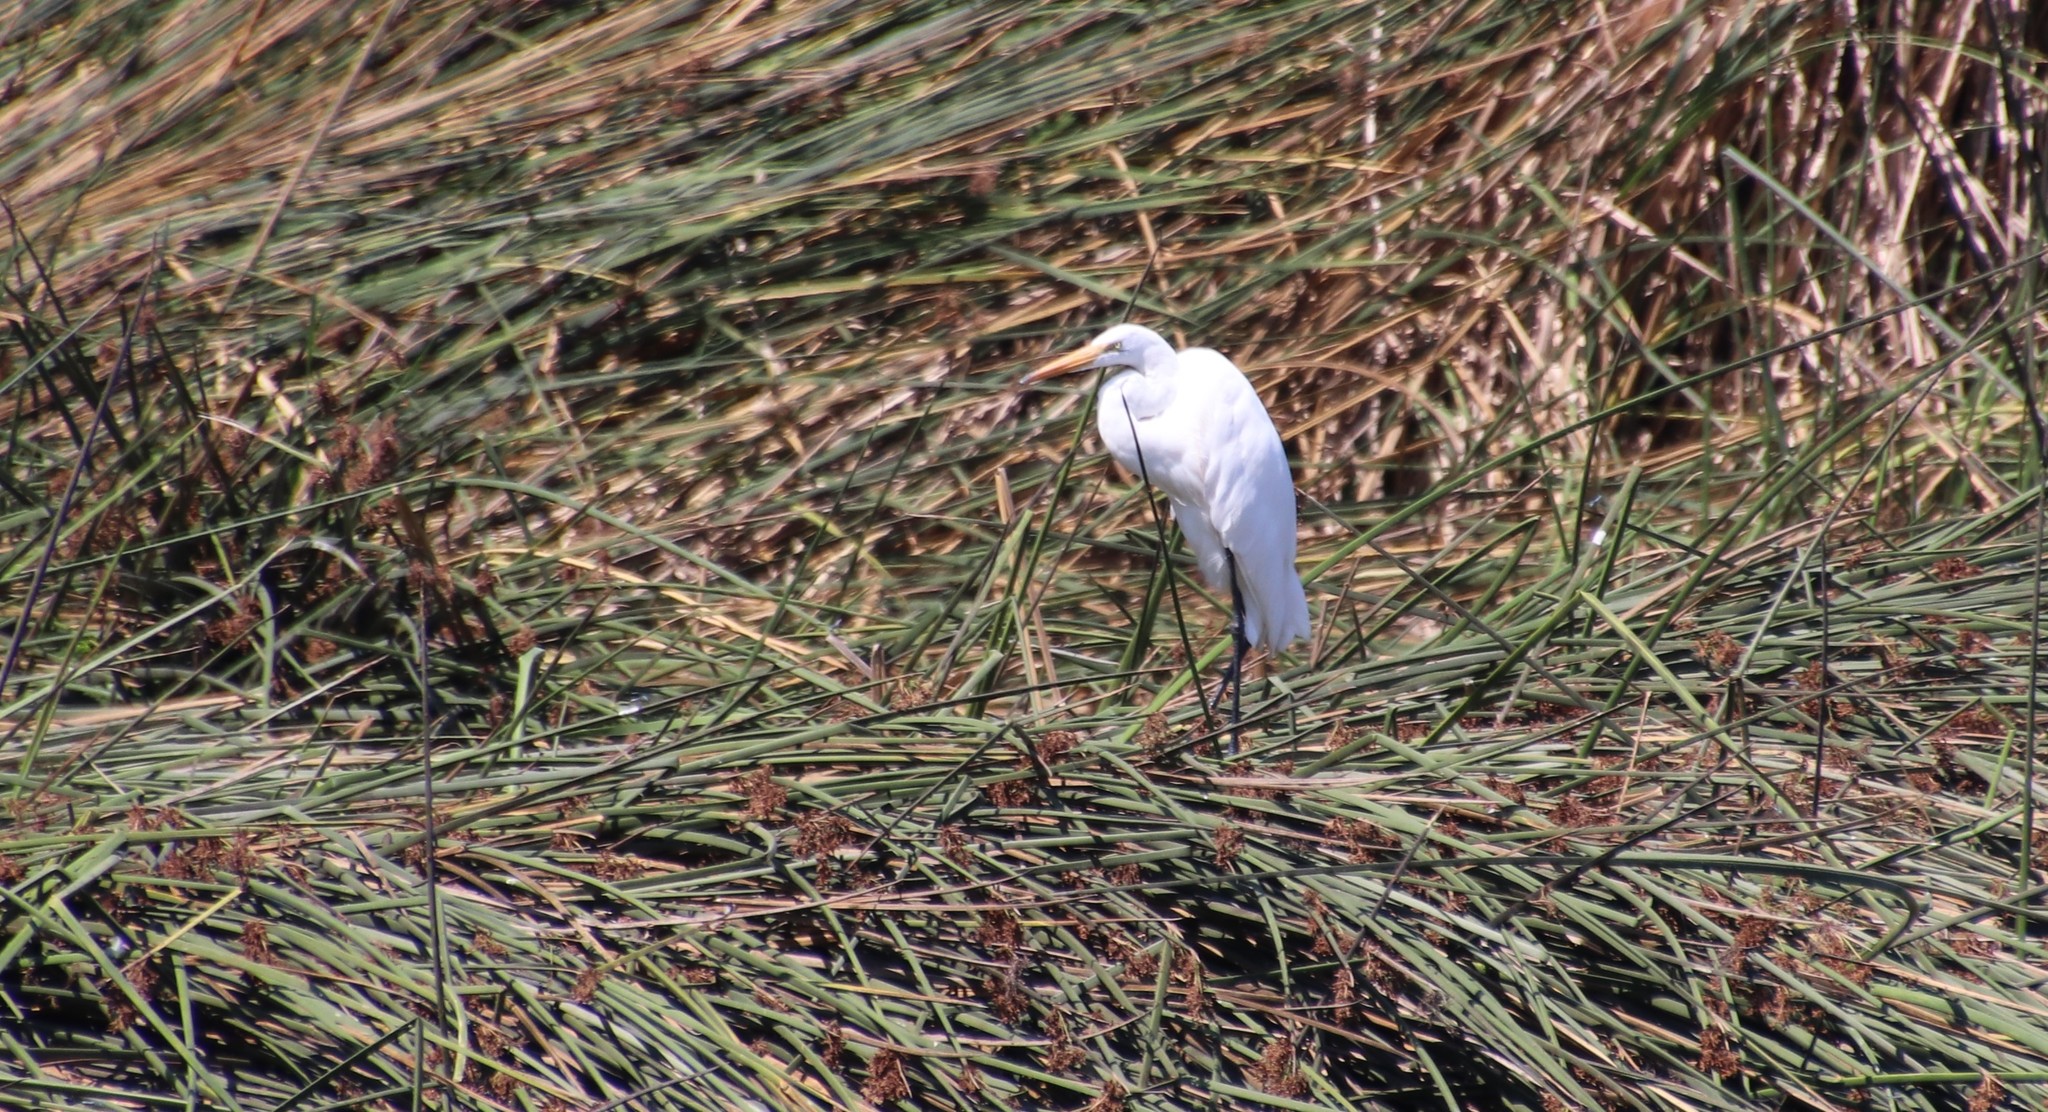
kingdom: Animalia
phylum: Chordata
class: Aves
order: Pelecaniformes
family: Ardeidae
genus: Ardea
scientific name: Ardea alba
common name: Great egret
